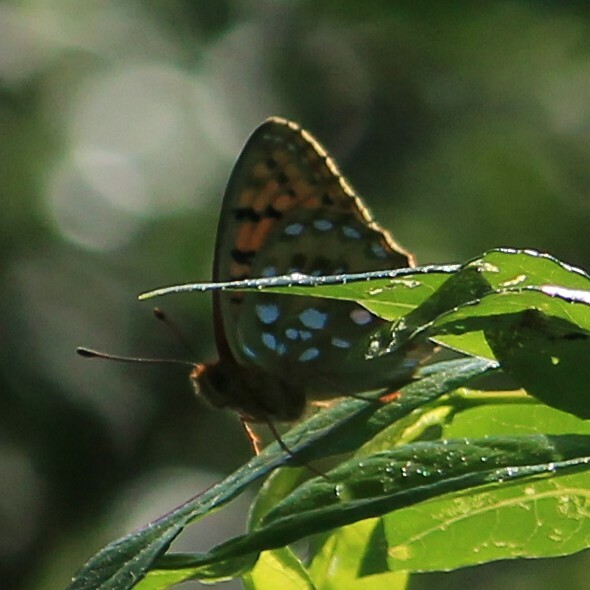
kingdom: Animalia
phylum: Arthropoda
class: Insecta
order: Lepidoptera
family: Nymphalidae
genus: Speyeria
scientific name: Speyeria aglaja
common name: Dark green fritillary
